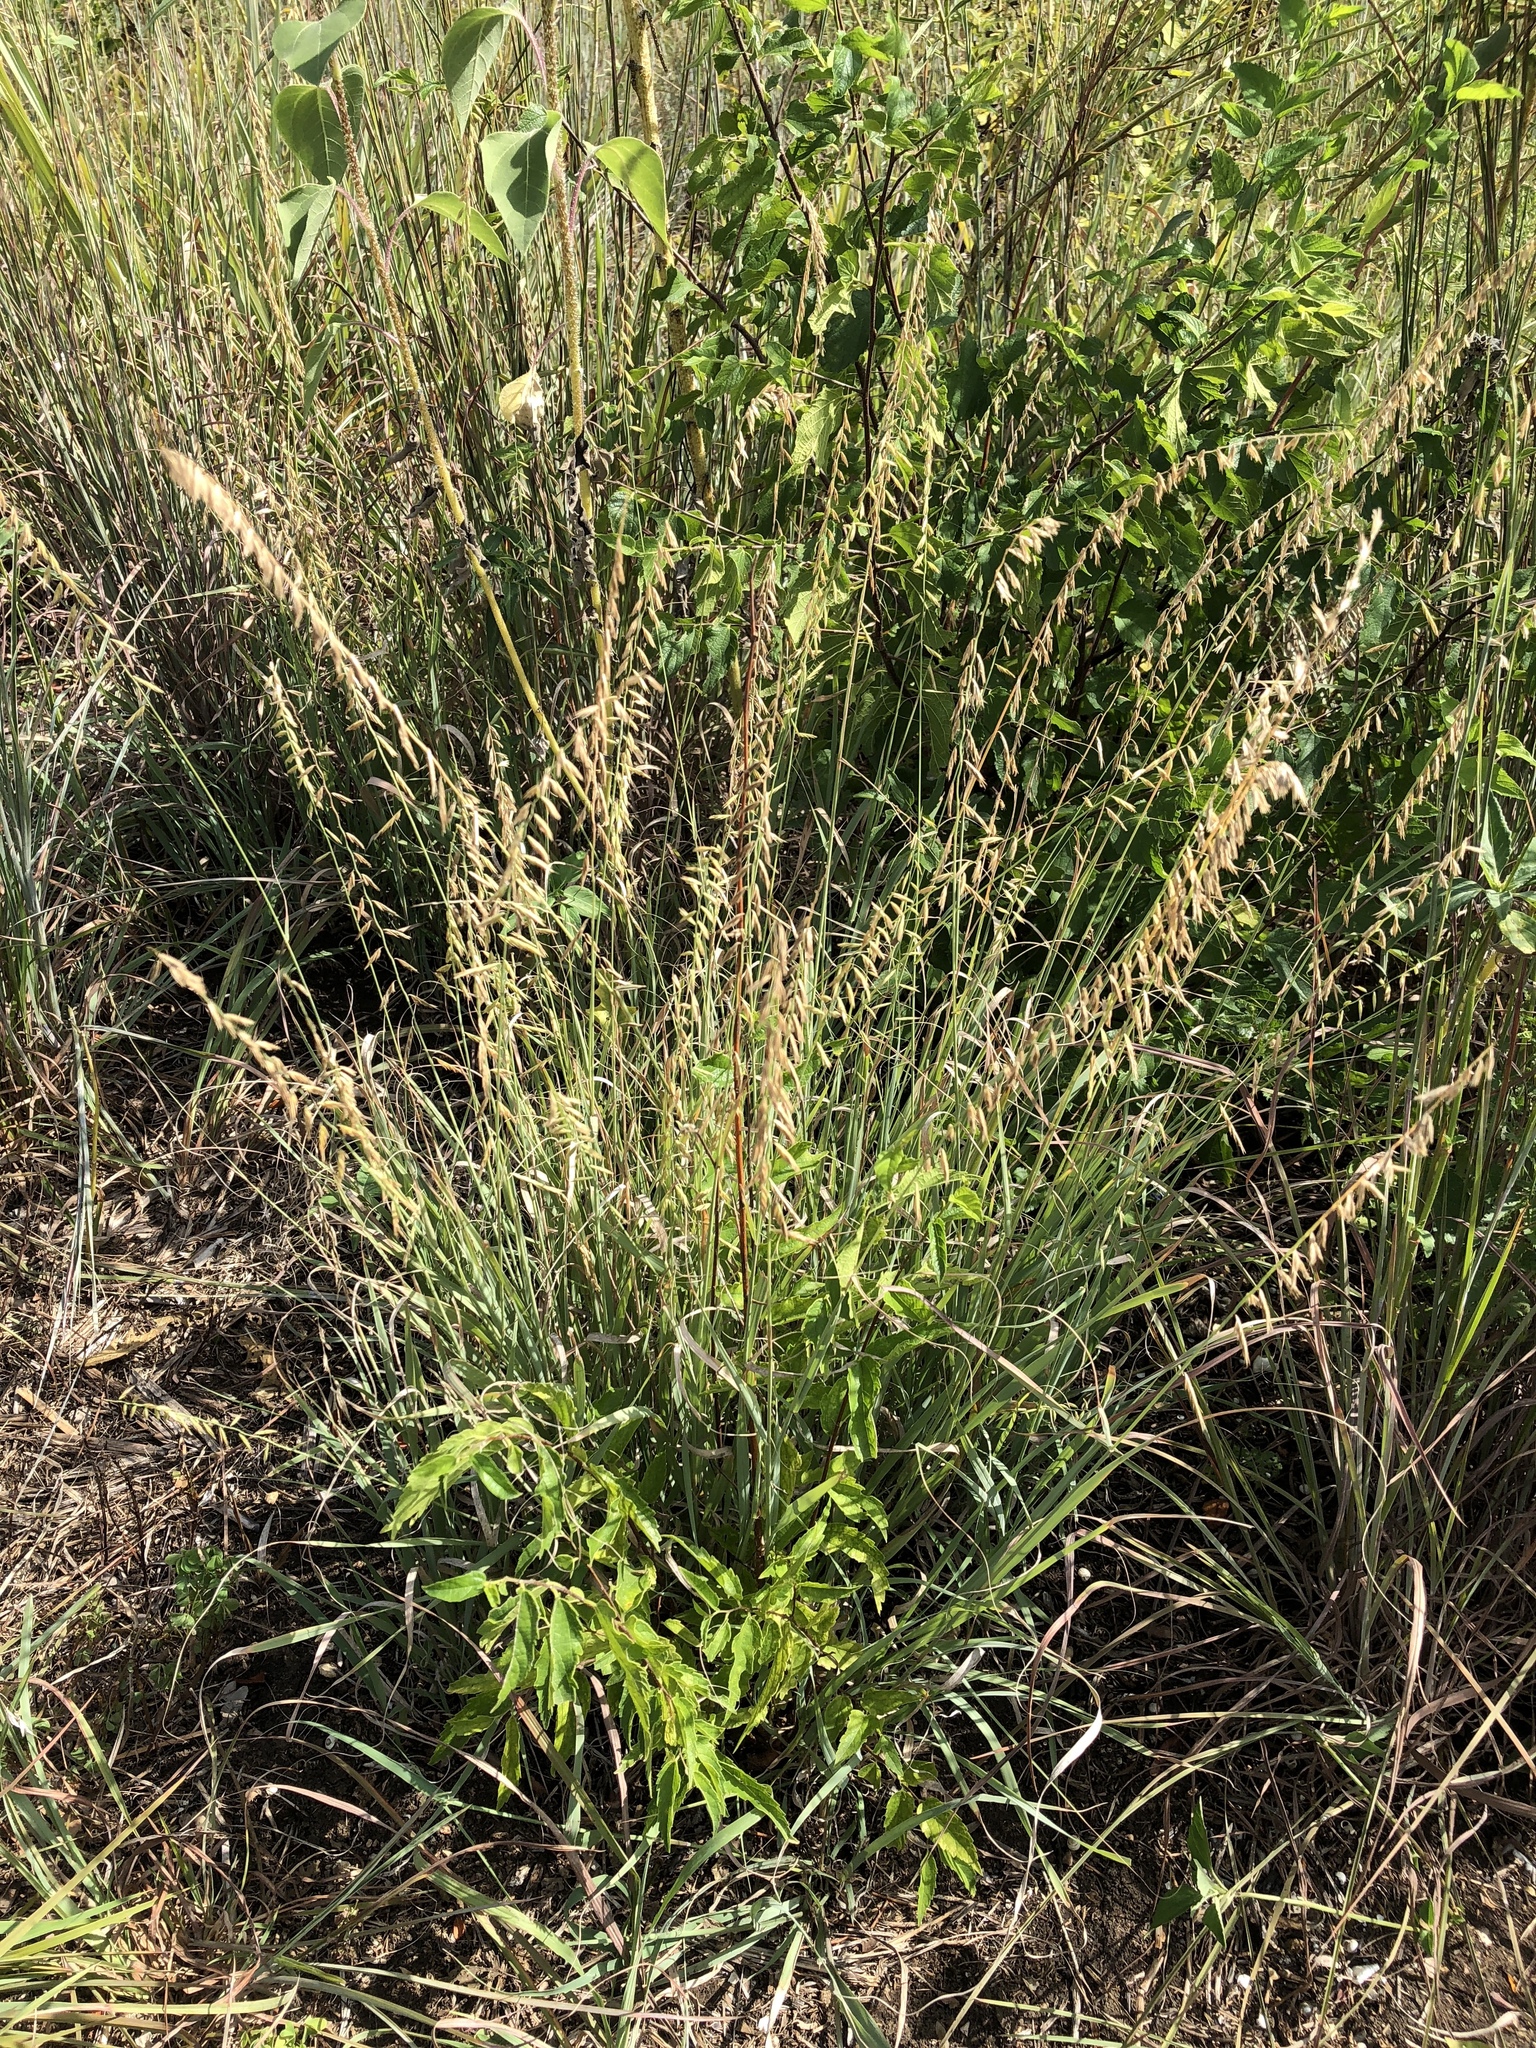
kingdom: Plantae
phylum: Tracheophyta
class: Liliopsida
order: Poales
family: Poaceae
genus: Bouteloua
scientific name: Bouteloua curtipendula
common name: Side-oats grama
